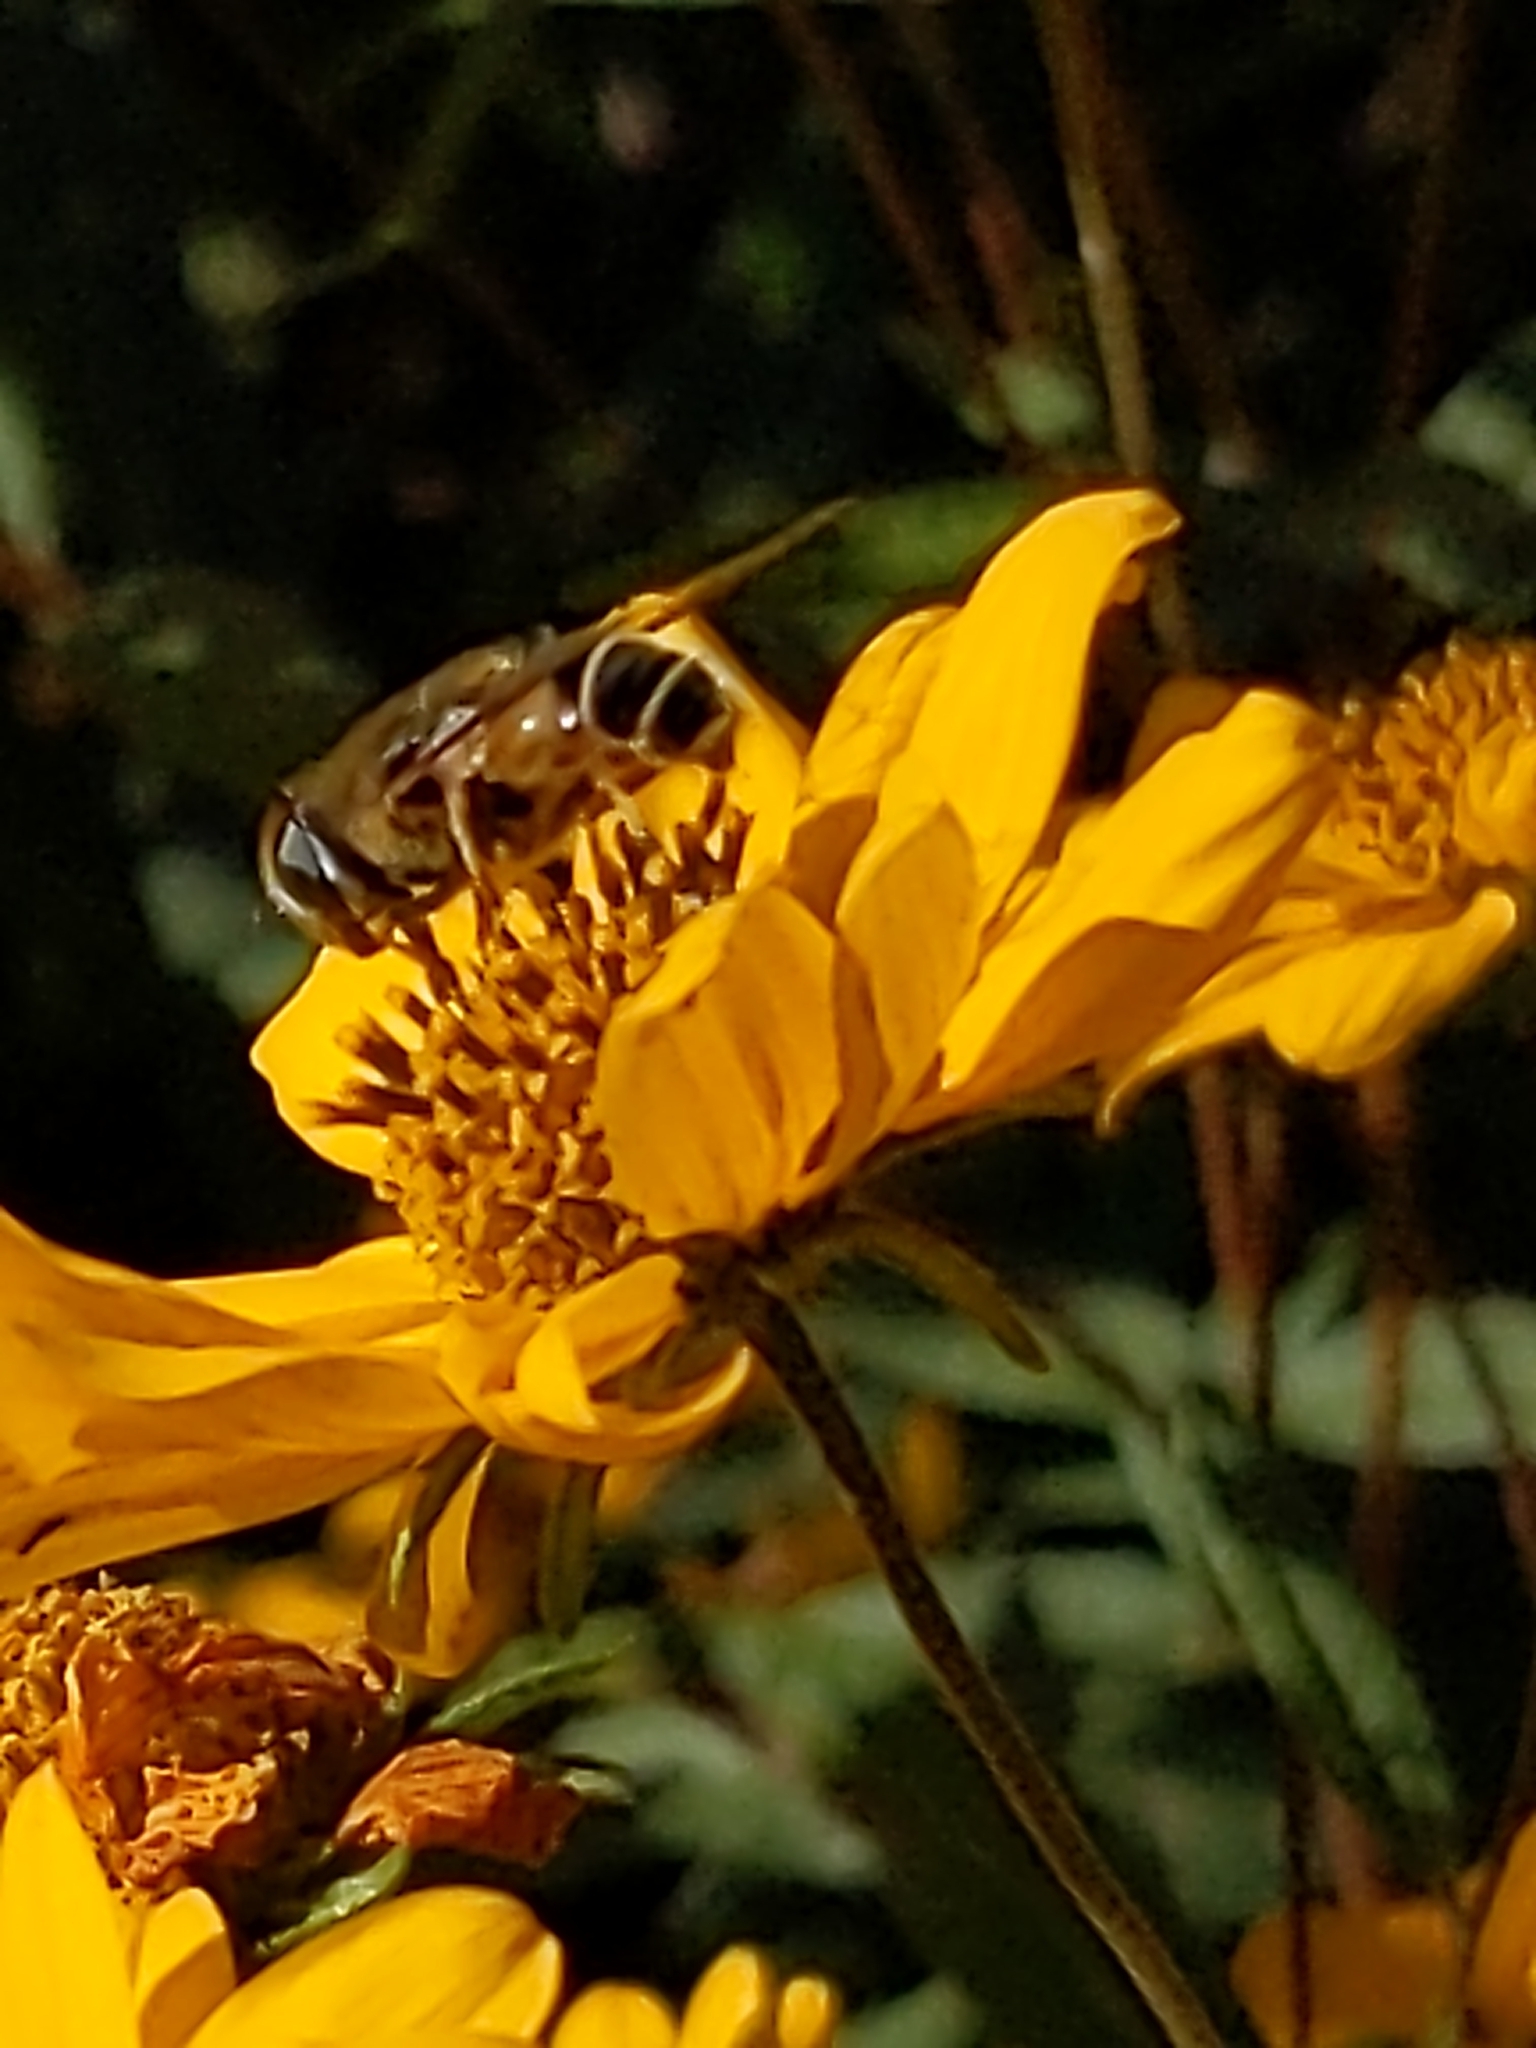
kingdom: Animalia
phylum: Arthropoda
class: Insecta
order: Diptera
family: Syrphidae
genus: Eristalis
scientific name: Eristalis hirta
